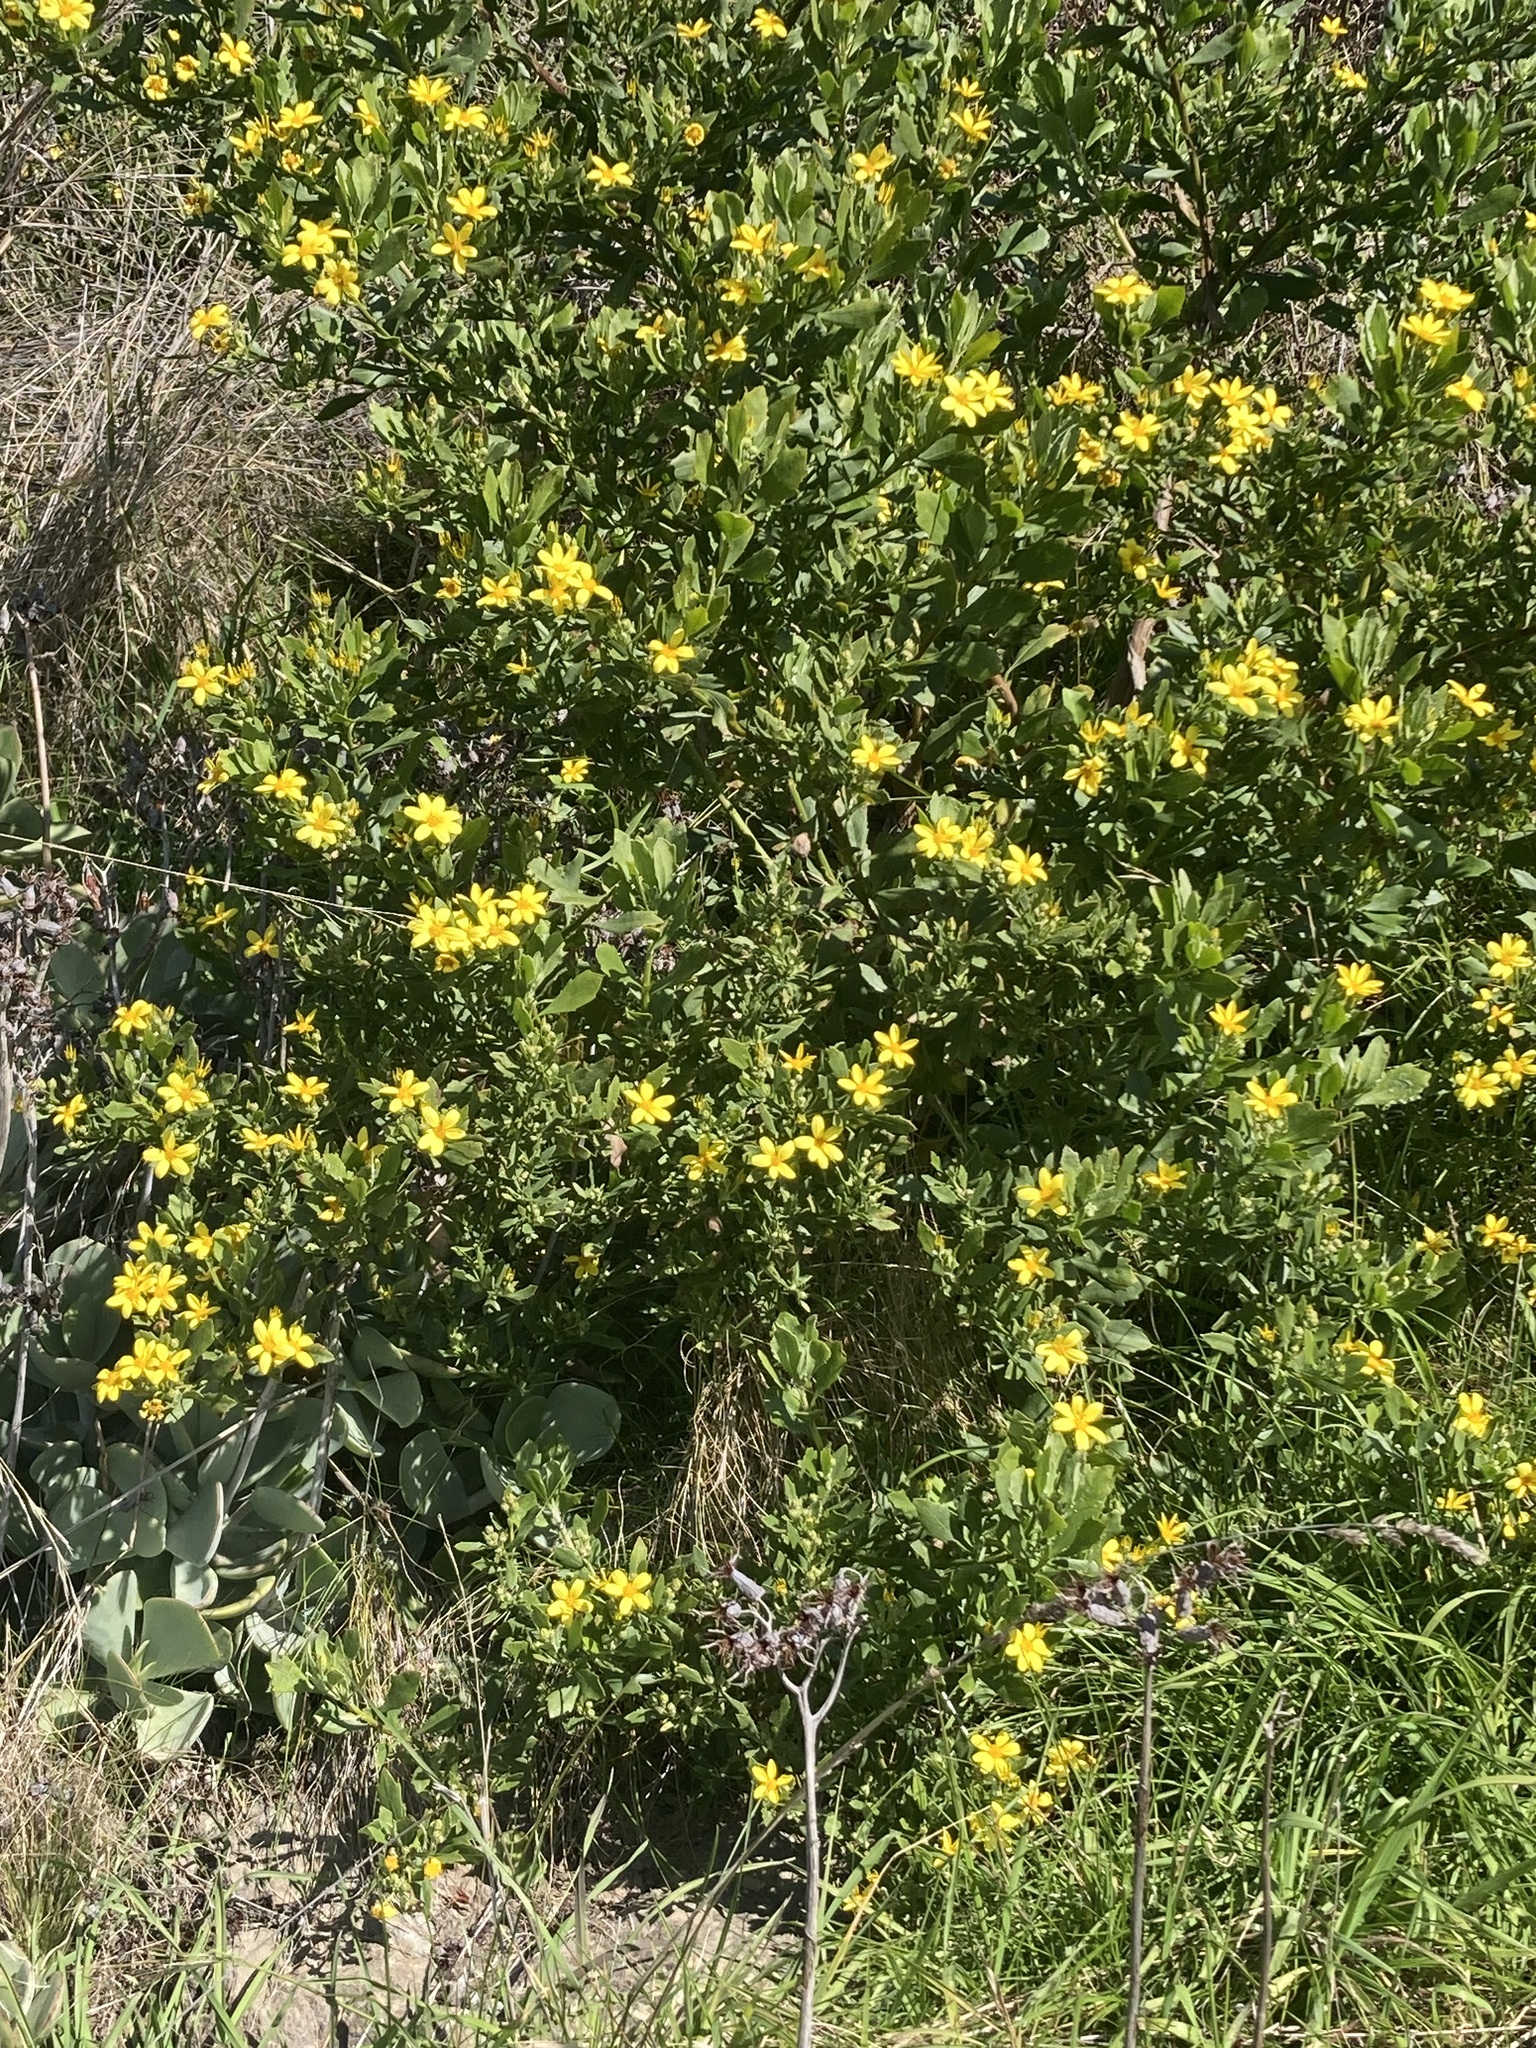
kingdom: Plantae
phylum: Tracheophyta
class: Magnoliopsida
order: Asterales
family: Asteraceae
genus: Osteospermum
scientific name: Osteospermum moniliferum
